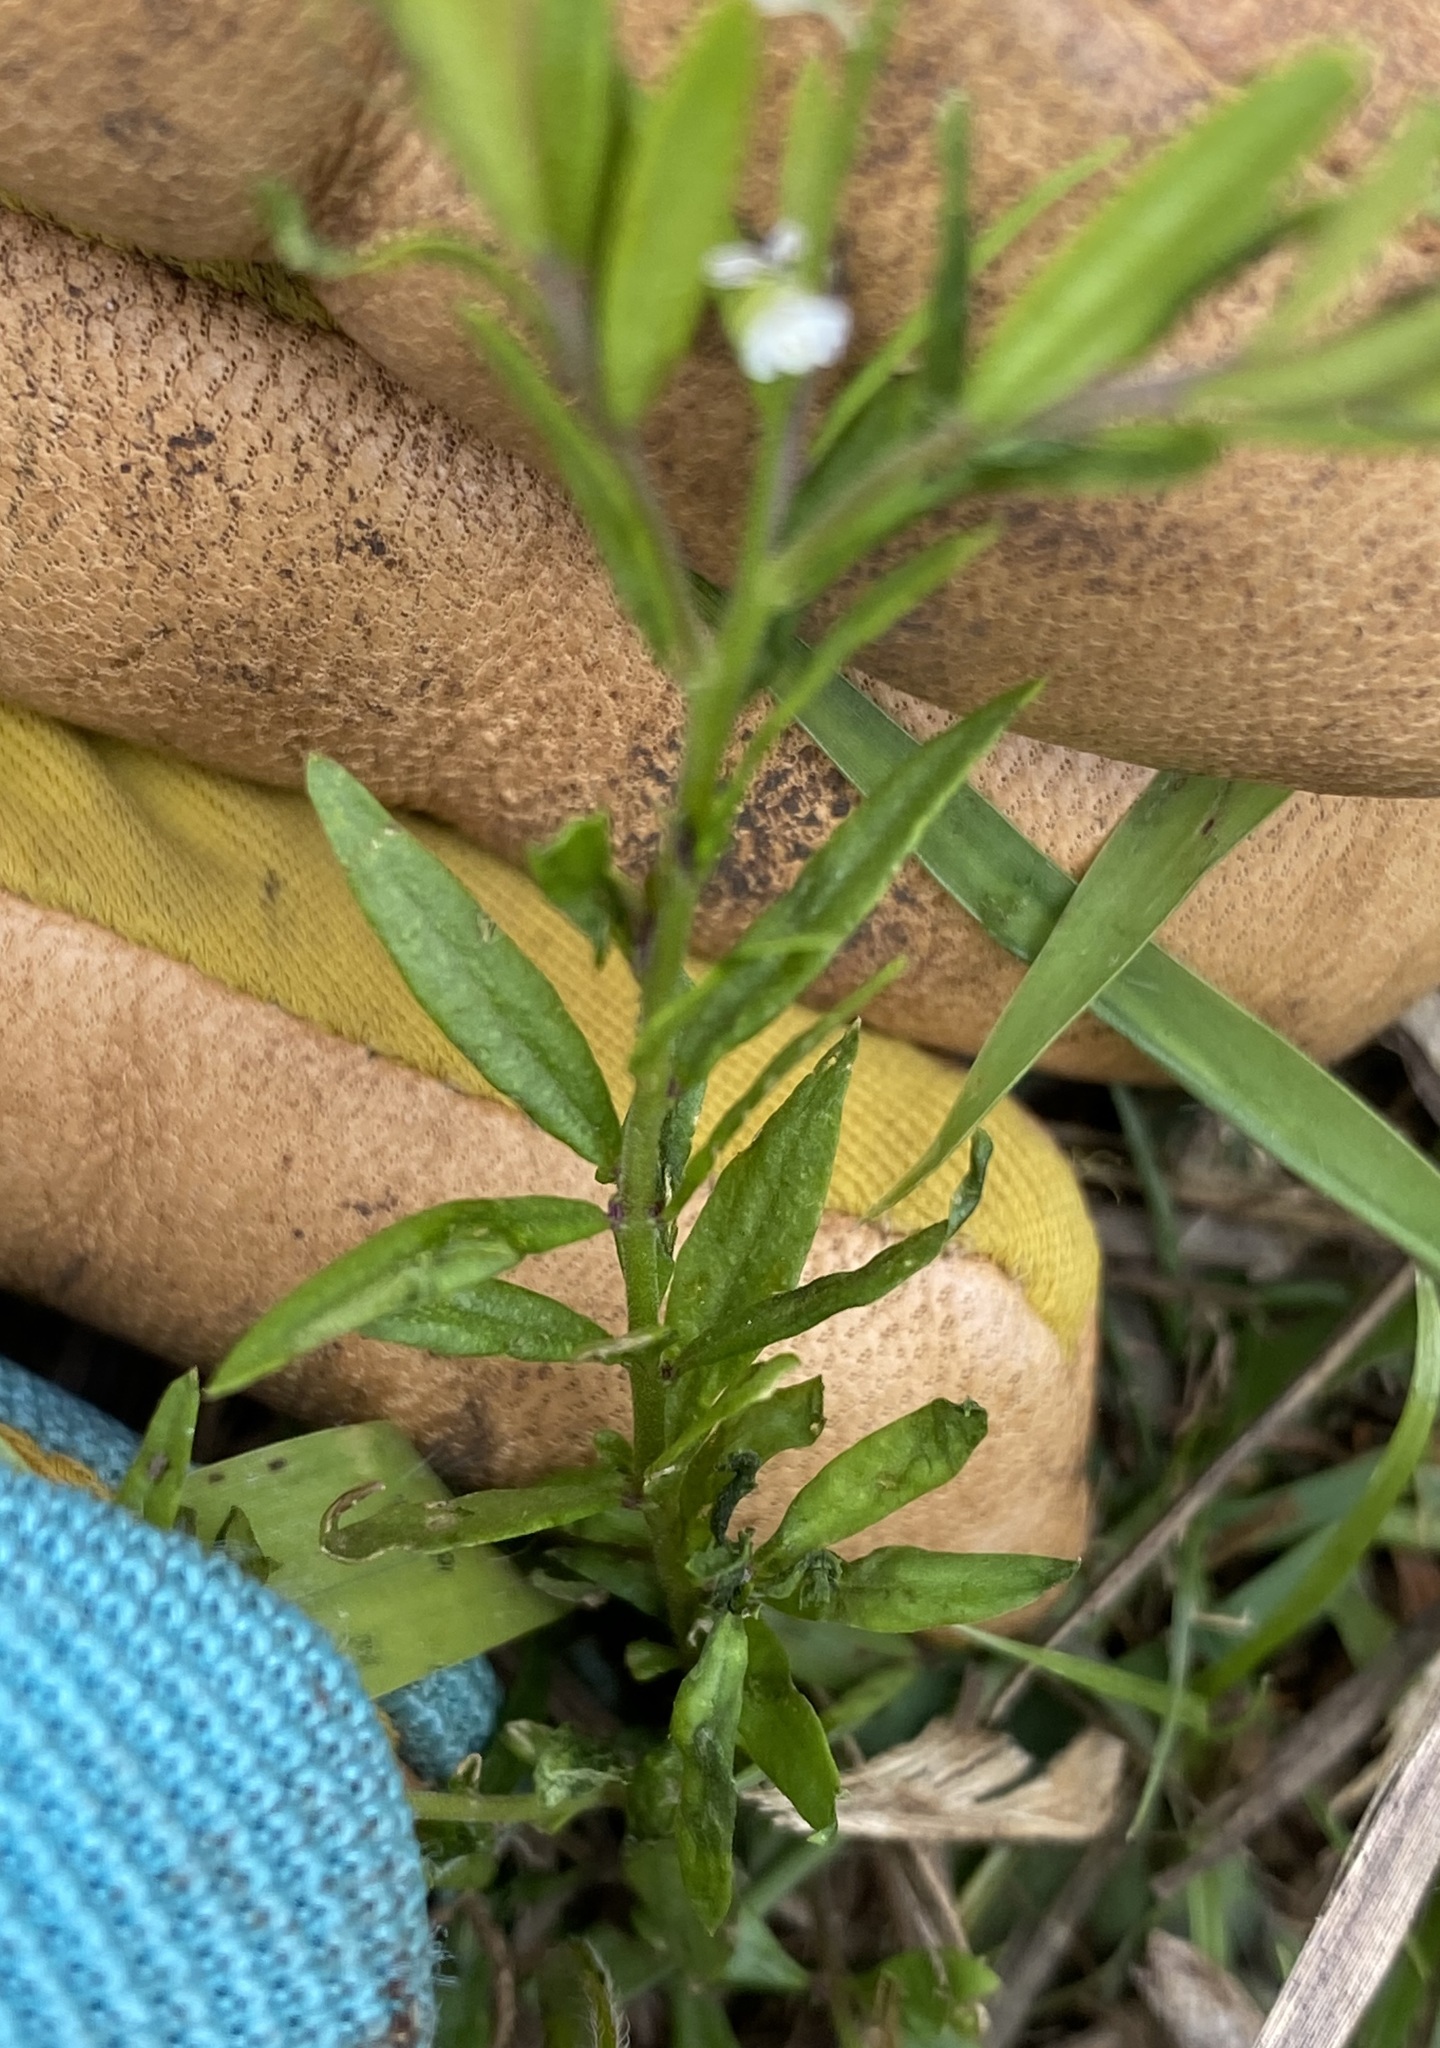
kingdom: Plantae
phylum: Tracheophyta
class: Magnoliopsida
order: Fabales
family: Polygalaceae
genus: Polygala
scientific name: Polygala paniculata
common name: Orosne
